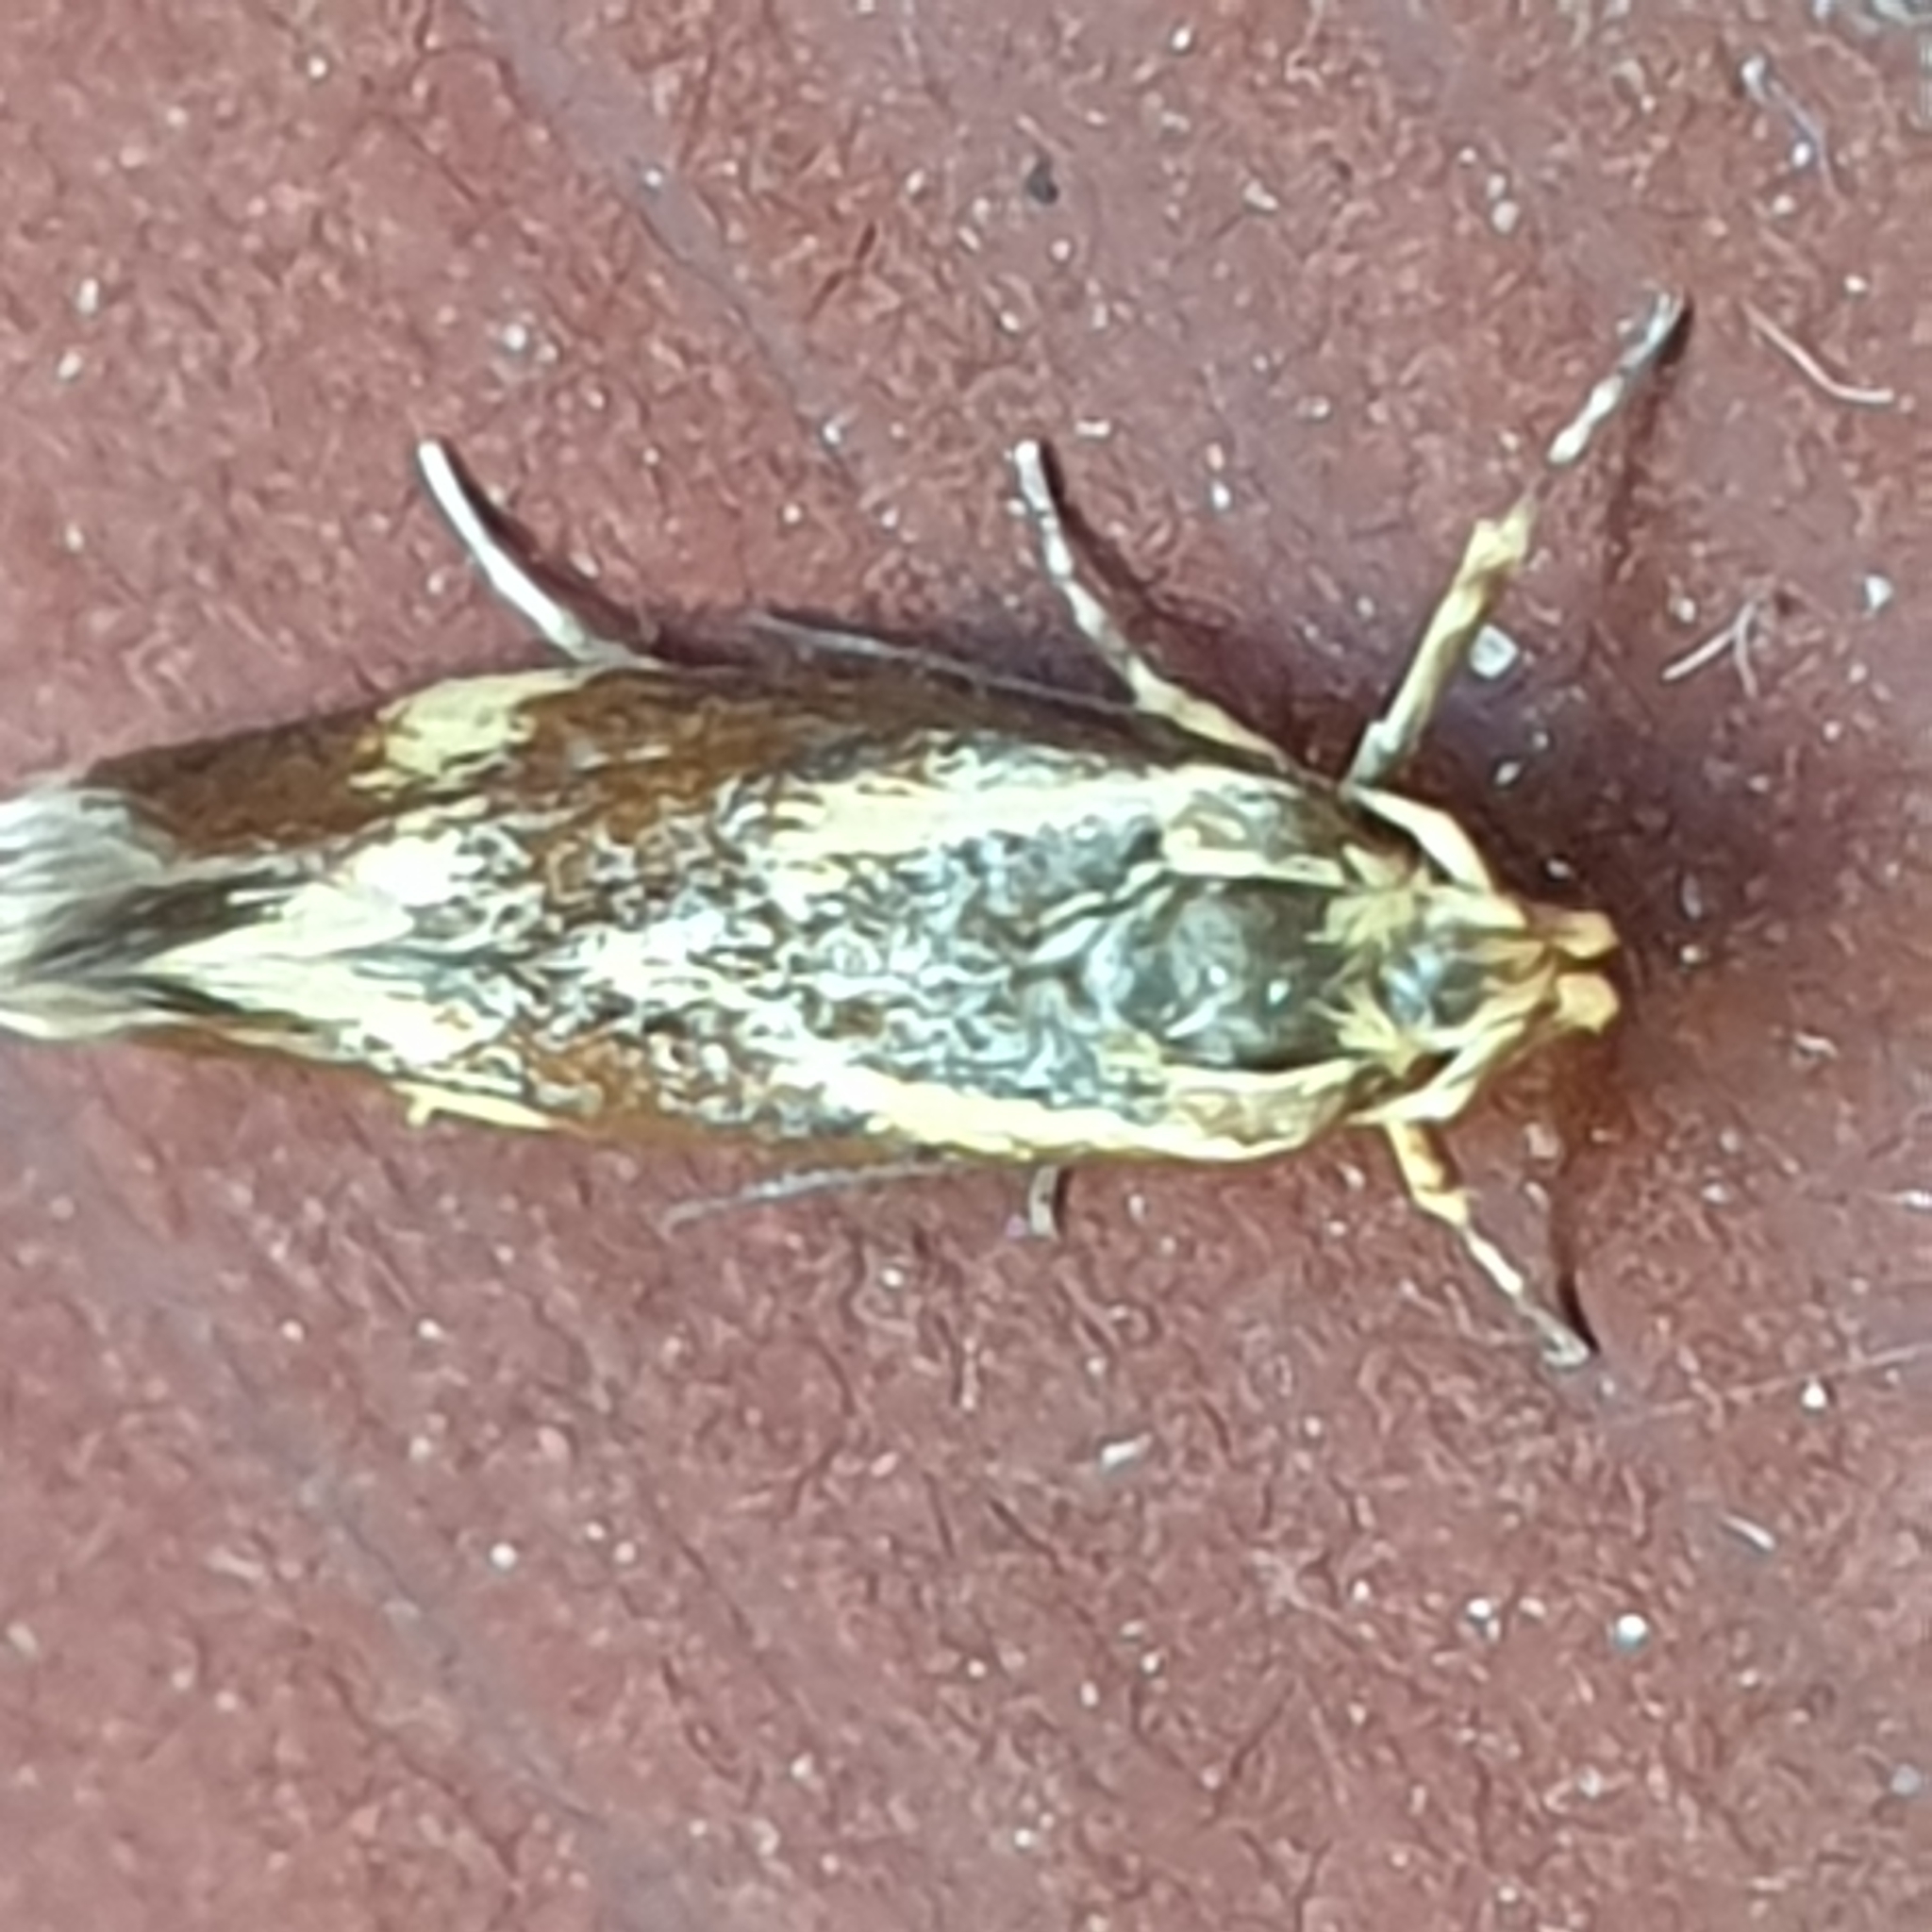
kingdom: Animalia
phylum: Arthropoda
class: Insecta
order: Lepidoptera
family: Oecophoridae
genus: Borkhausenia
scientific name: Borkhausenia cinnamomea
